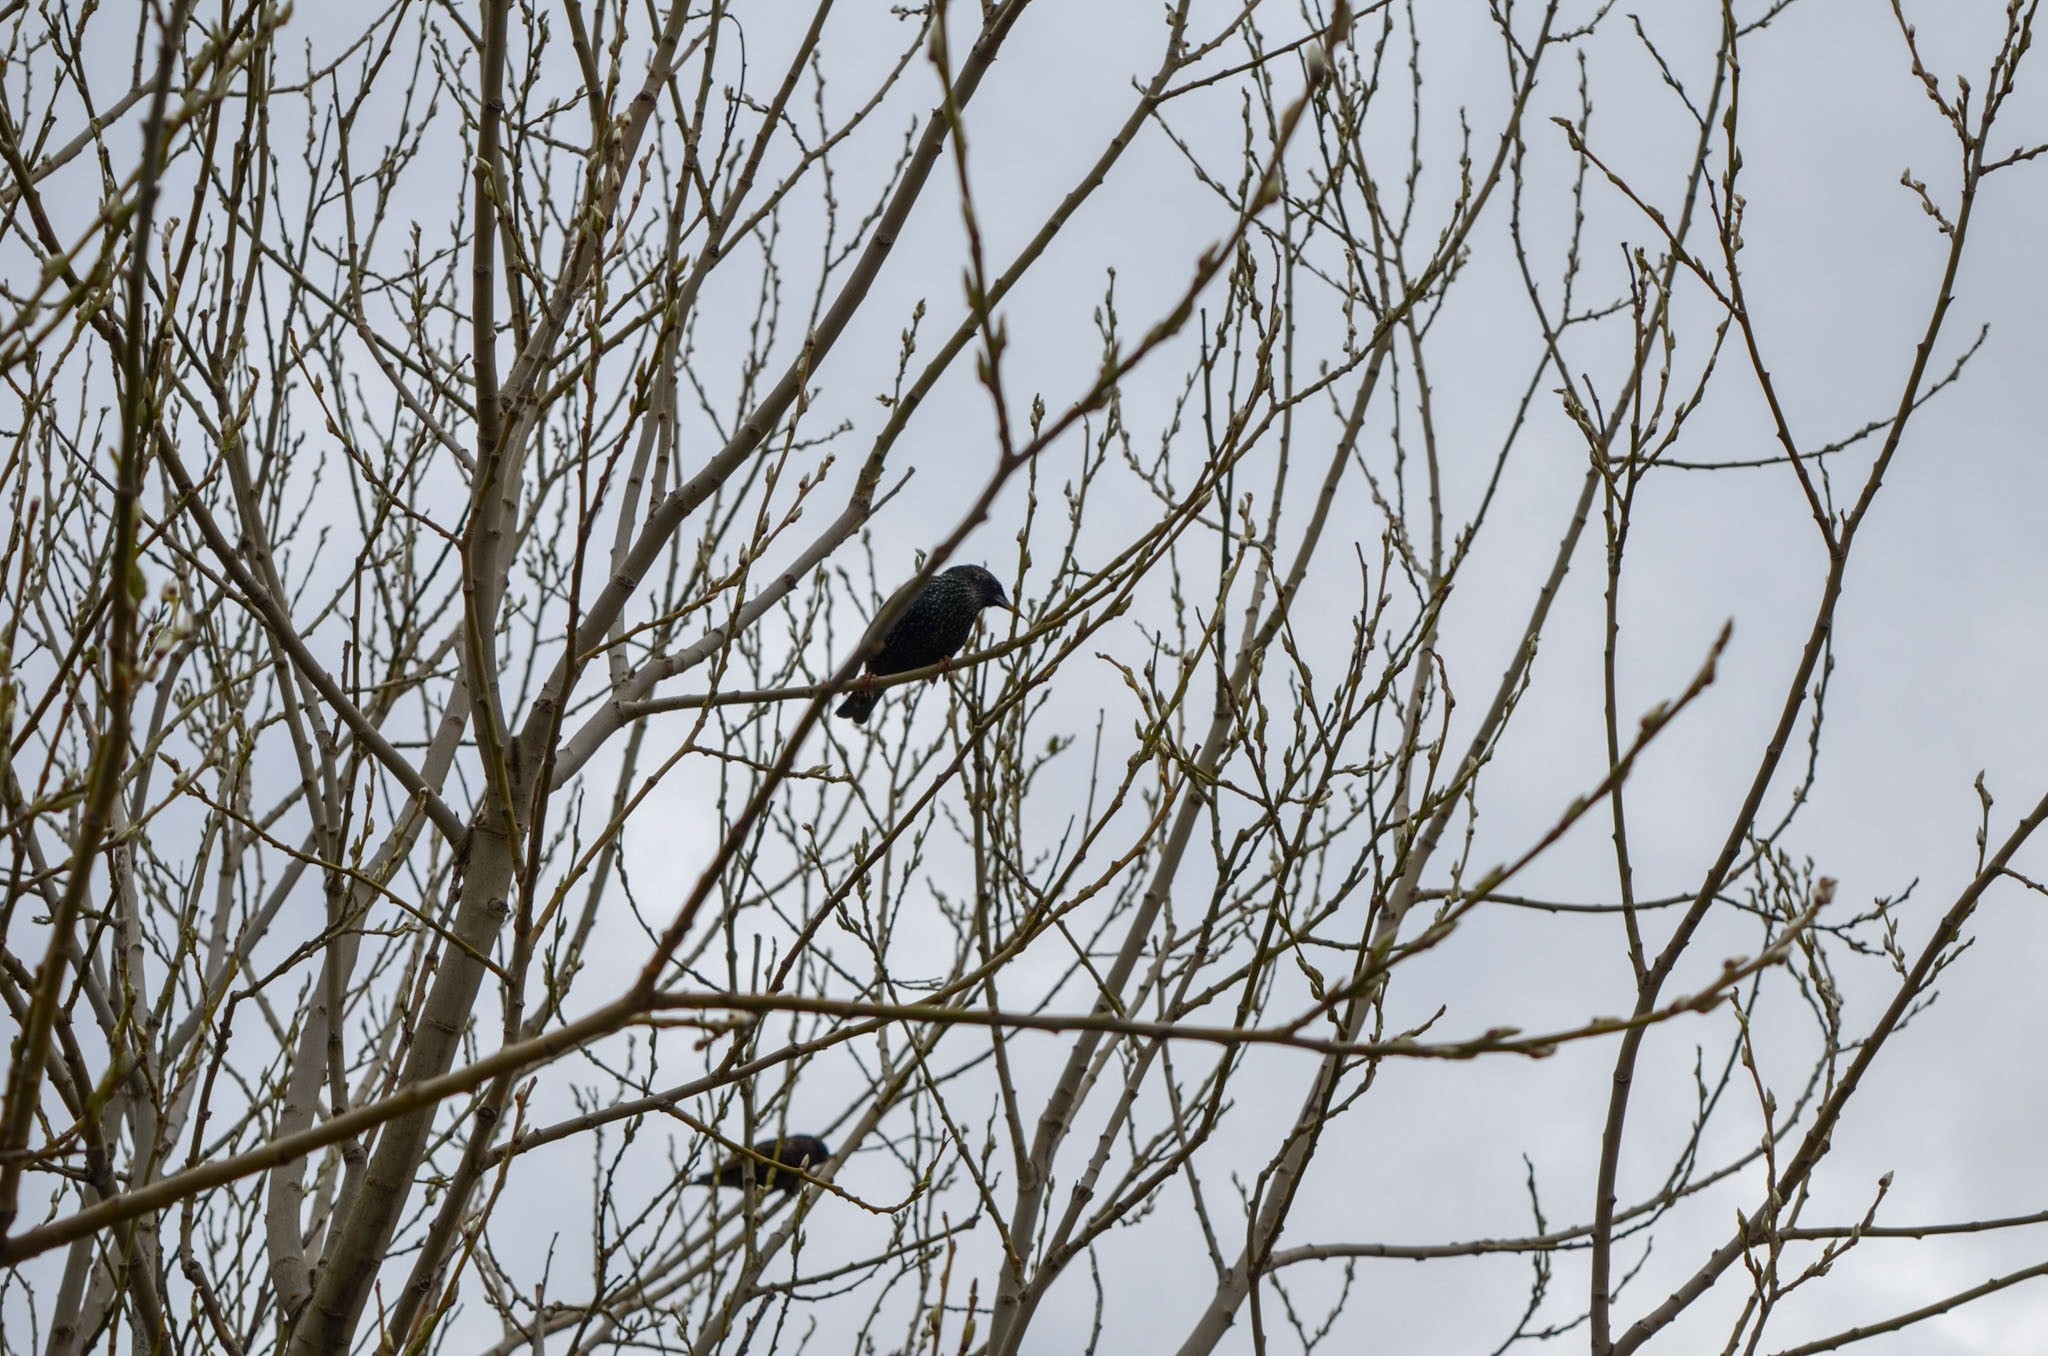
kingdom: Animalia
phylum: Chordata
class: Aves
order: Passeriformes
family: Sturnidae
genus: Sturnus
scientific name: Sturnus vulgaris
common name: Common starling
